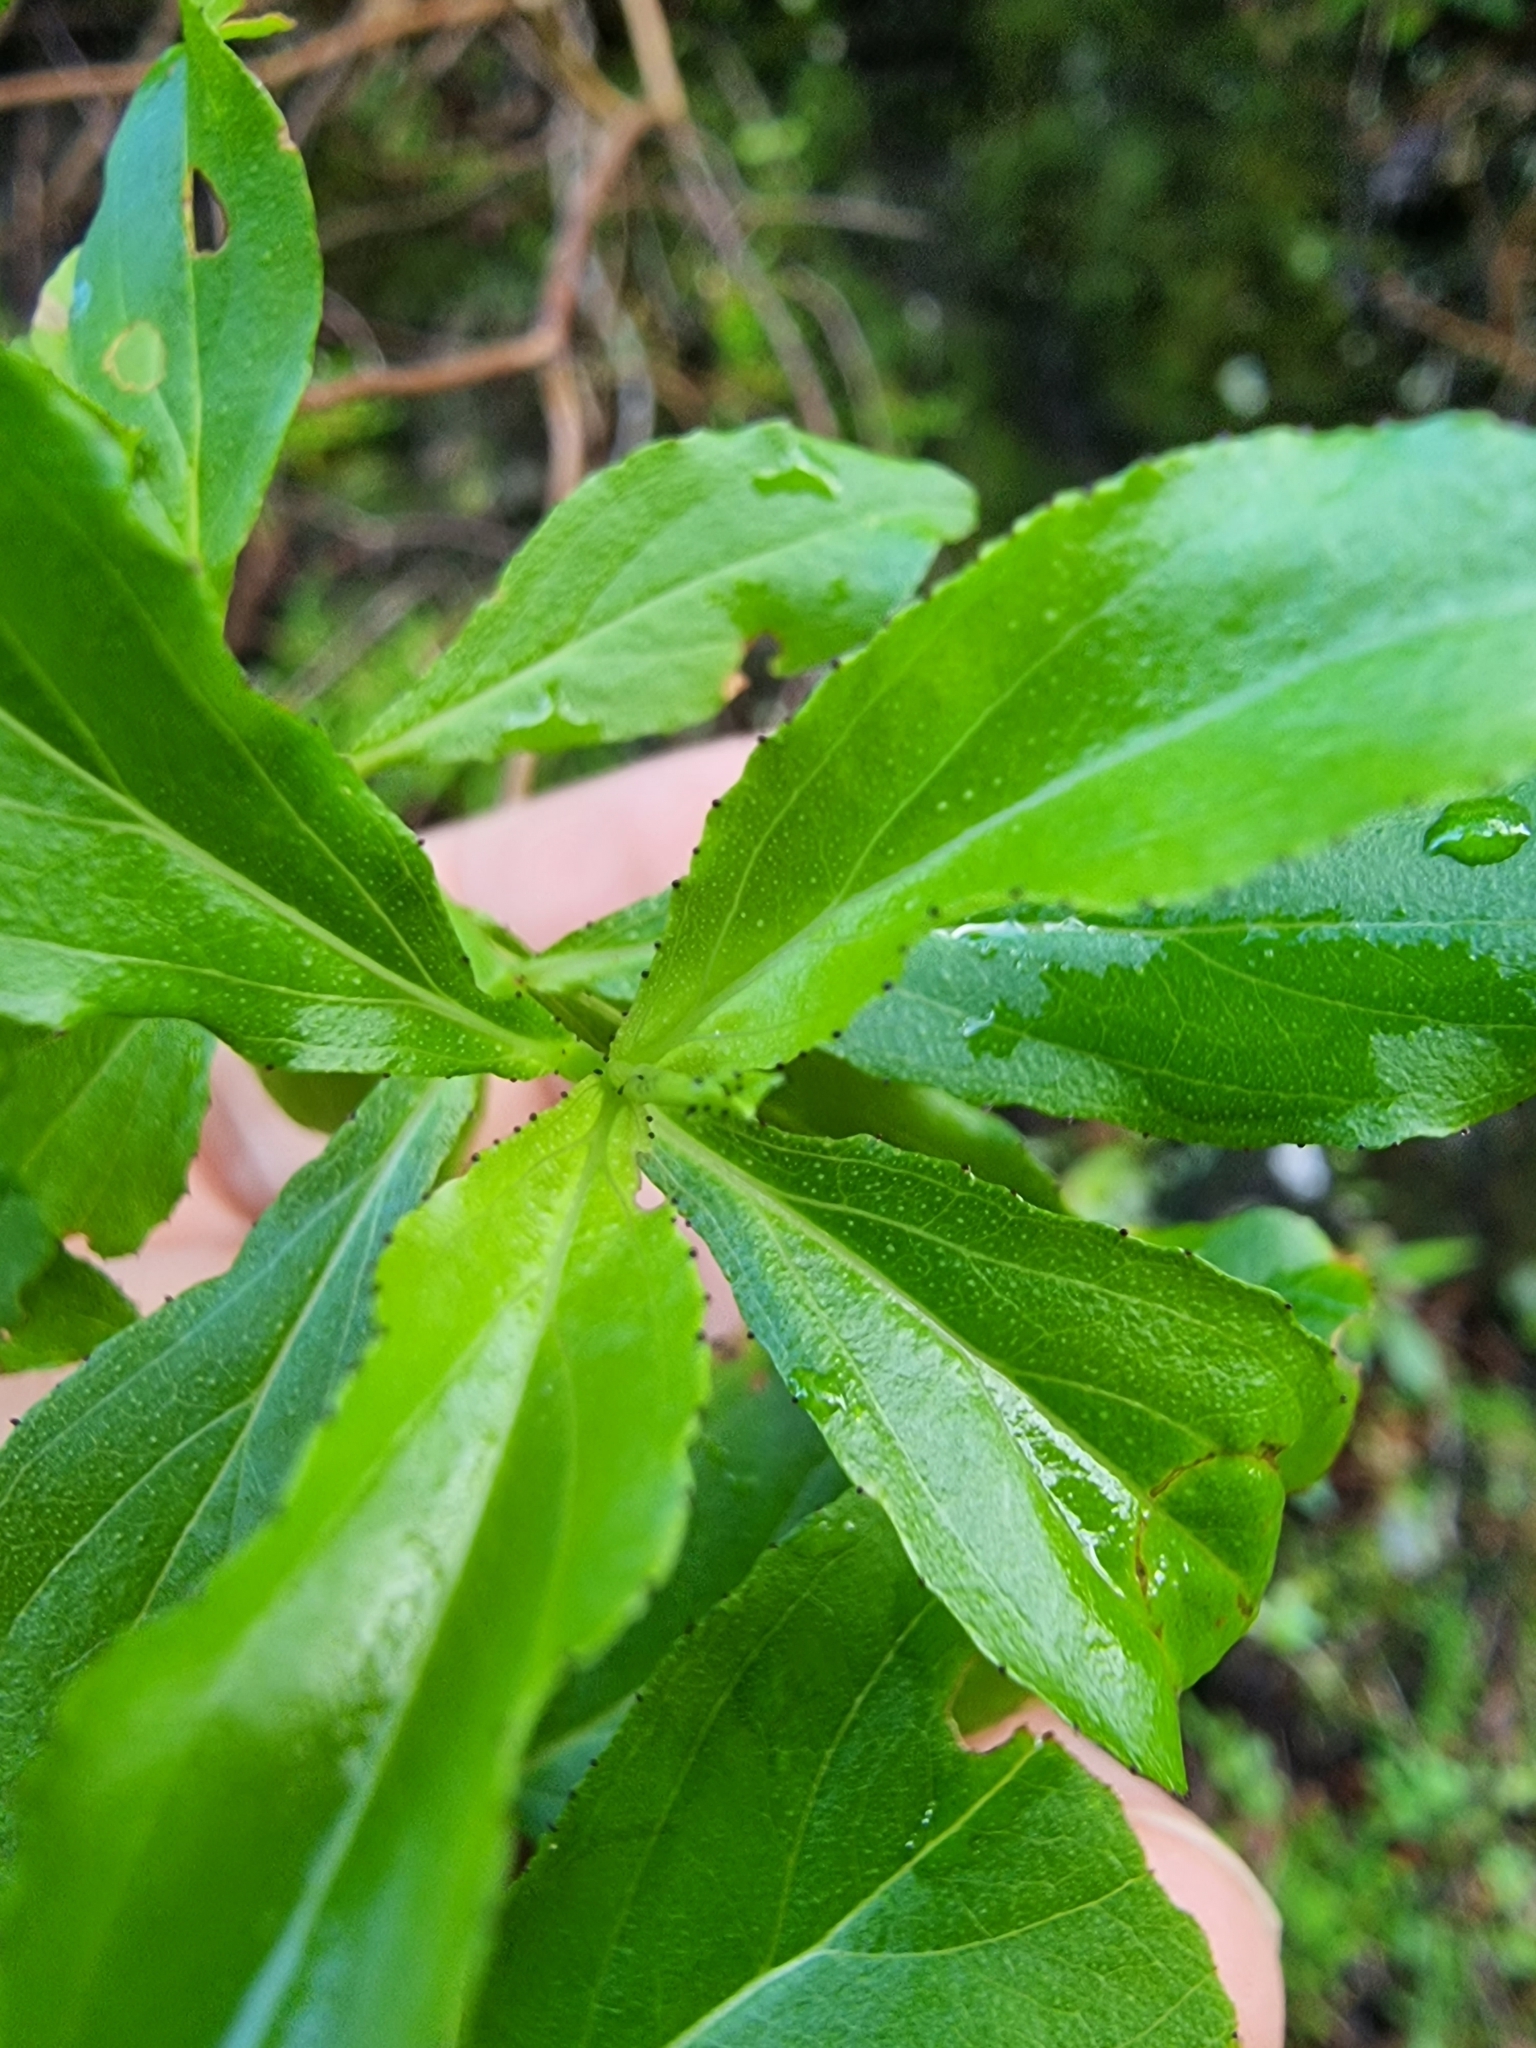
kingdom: Plantae
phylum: Tracheophyta
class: Magnoliopsida
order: Malpighiales
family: Hypericaceae
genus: Hypericum
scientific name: Hypericum glandulosum
